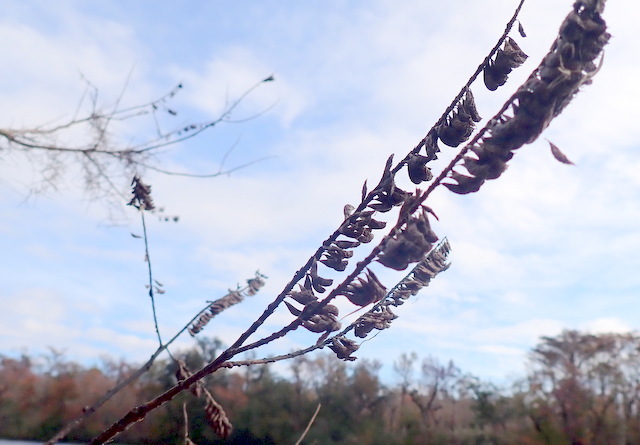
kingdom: Plantae
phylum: Tracheophyta
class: Magnoliopsida
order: Fabales
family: Fabaceae
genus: Amorpha
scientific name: Amorpha fruticosa
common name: False indigo
